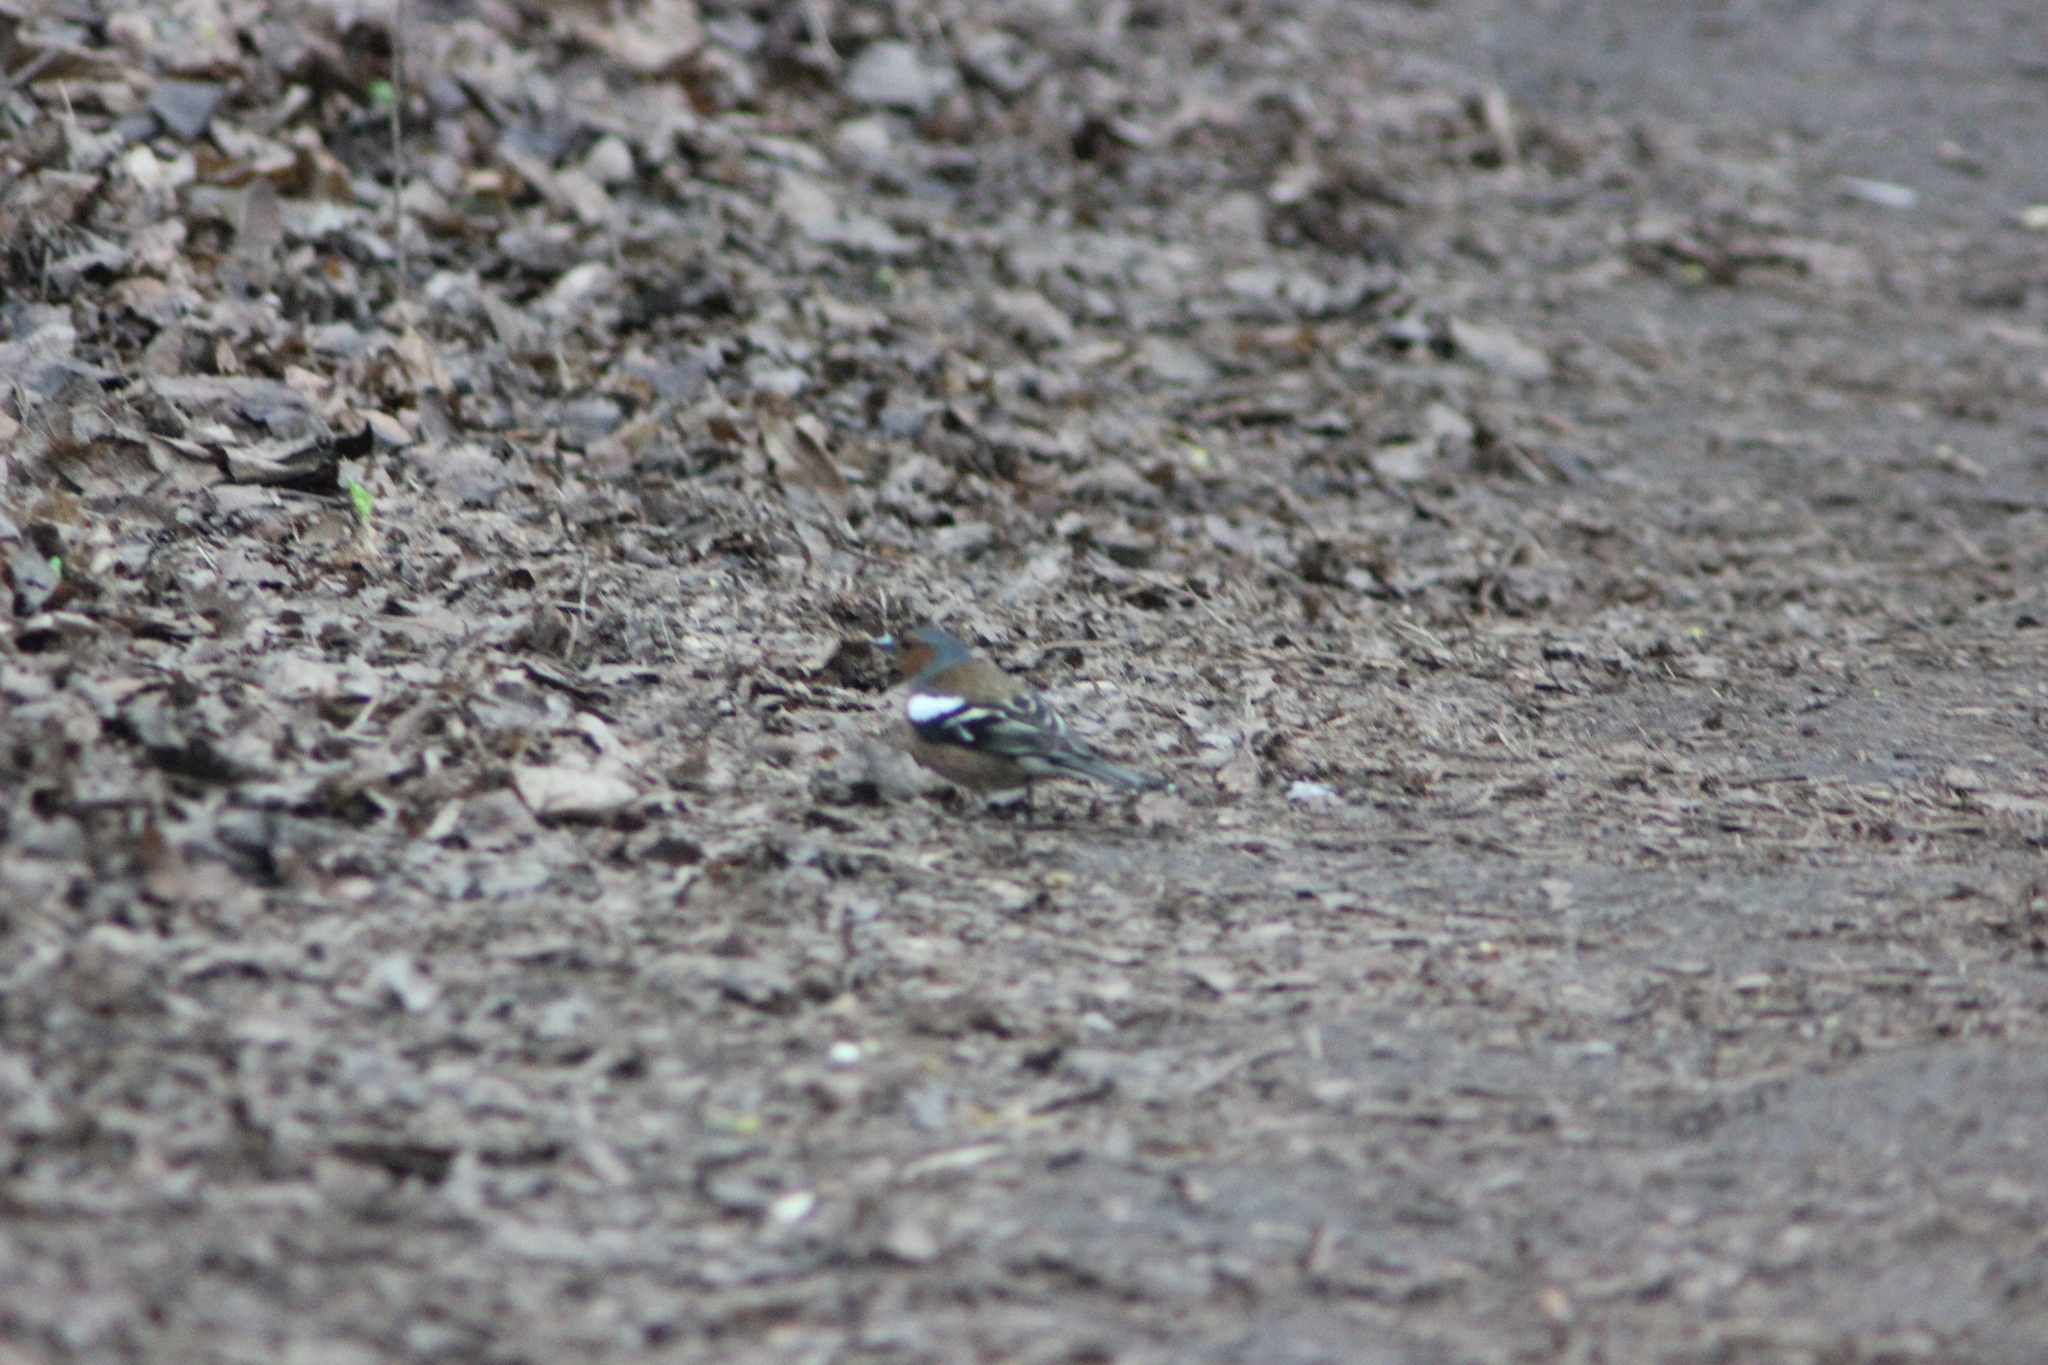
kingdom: Animalia
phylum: Chordata
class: Aves
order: Passeriformes
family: Fringillidae
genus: Fringilla
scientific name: Fringilla coelebs
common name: Common chaffinch
